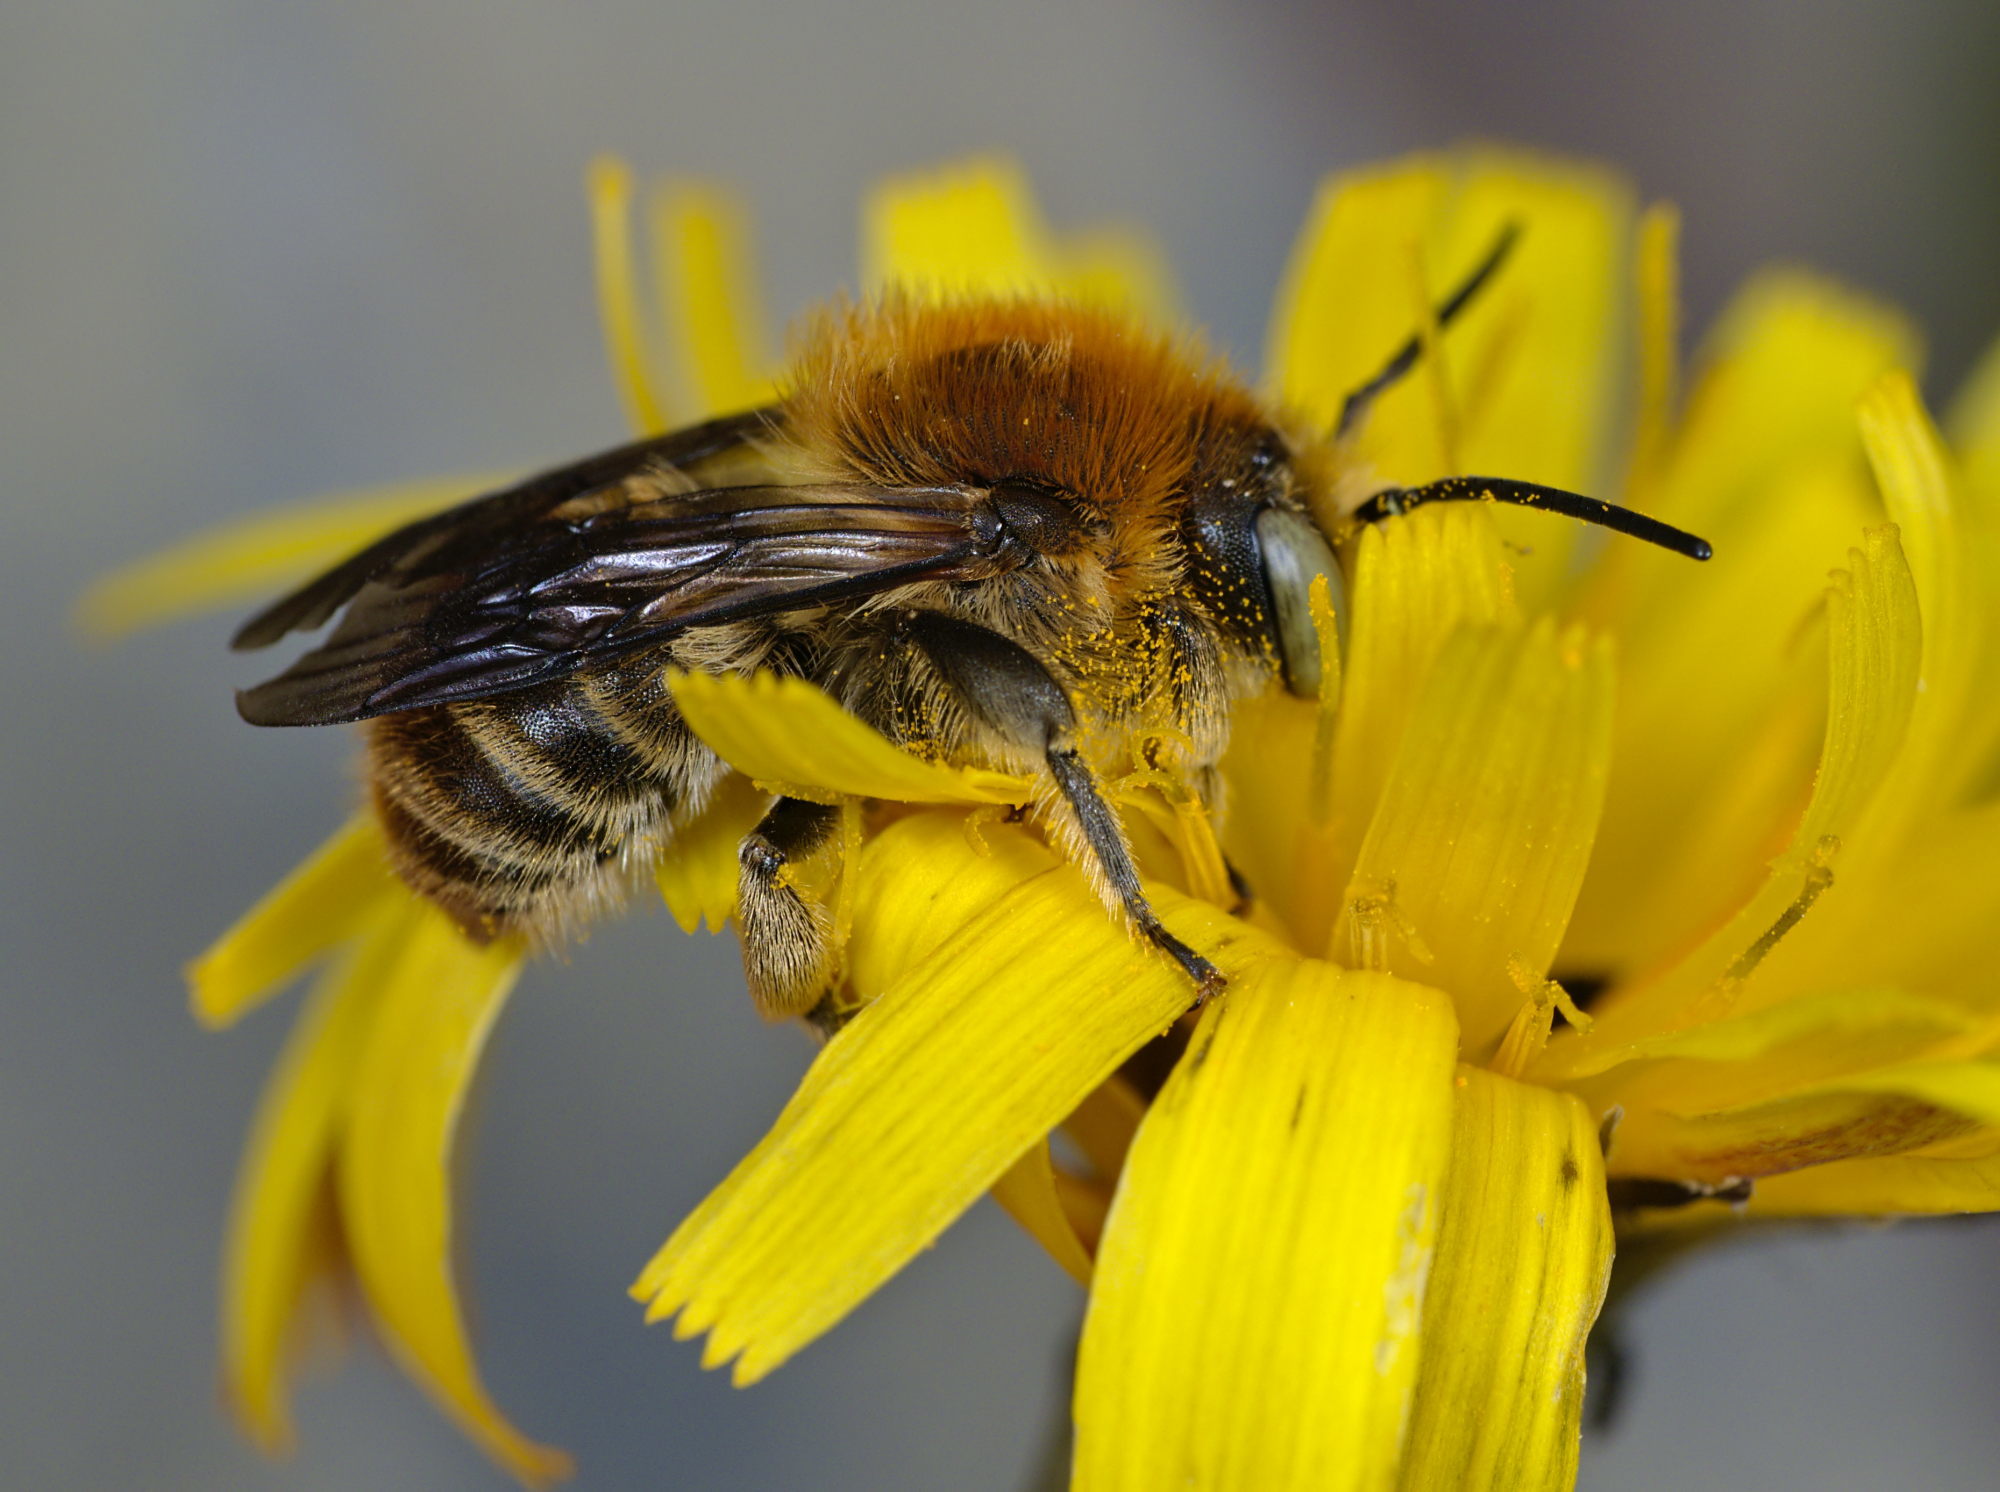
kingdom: Animalia
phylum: Arthropoda
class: Insecta
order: Hymenoptera
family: Megachilidae
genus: Trachusa
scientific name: Trachusa byssina
